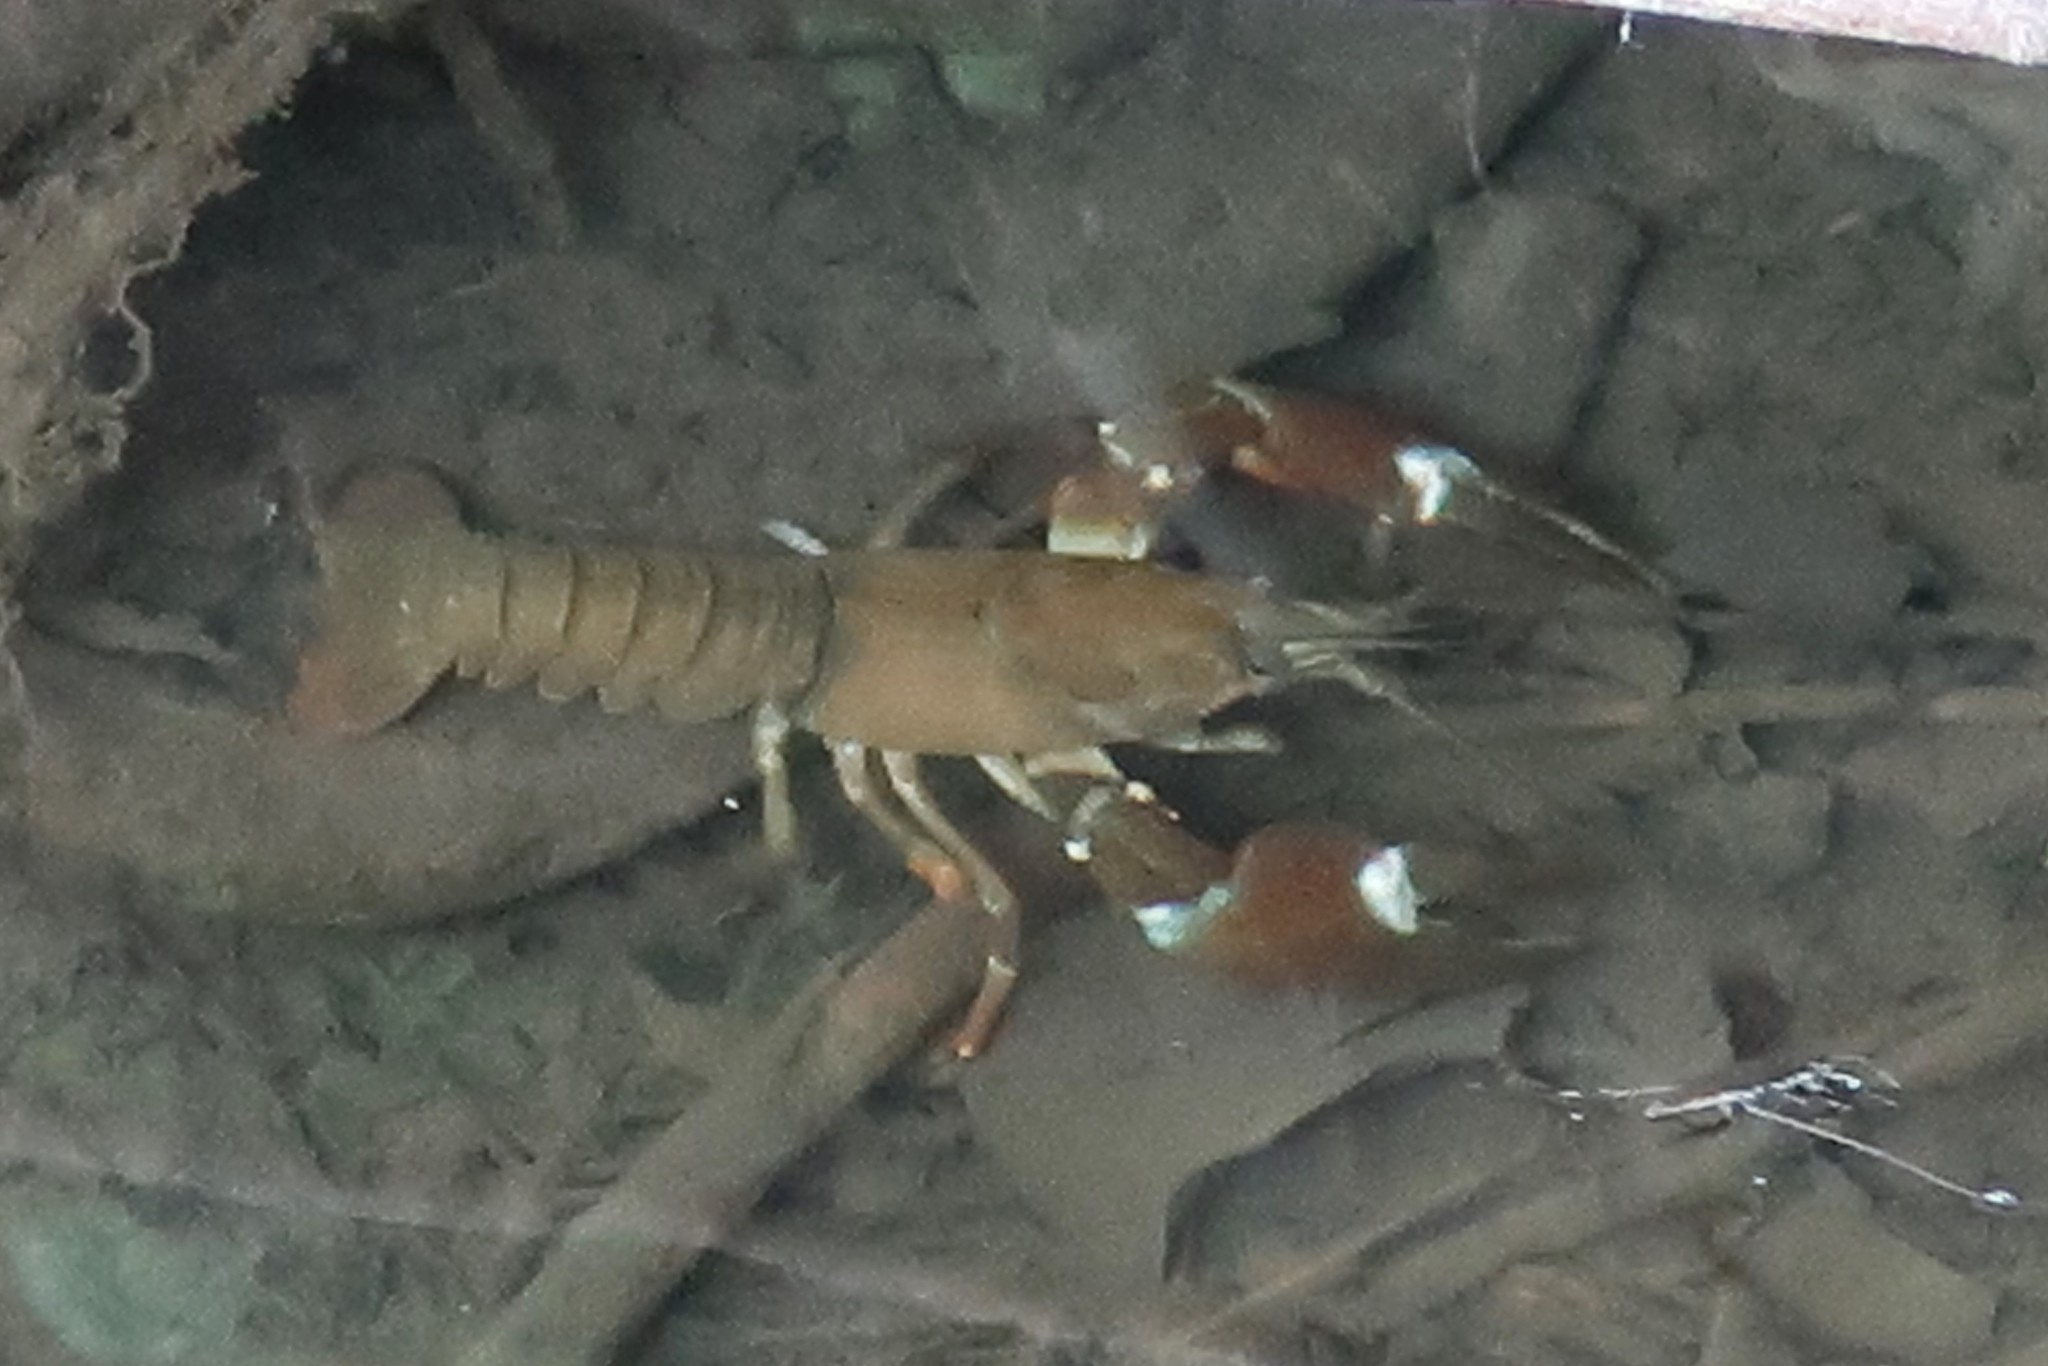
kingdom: Animalia
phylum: Arthropoda
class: Malacostraca
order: Decapoda
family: Astacidae
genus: Pacifastacus
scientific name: Pacifastacus leniusculus
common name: Signal crayfish
